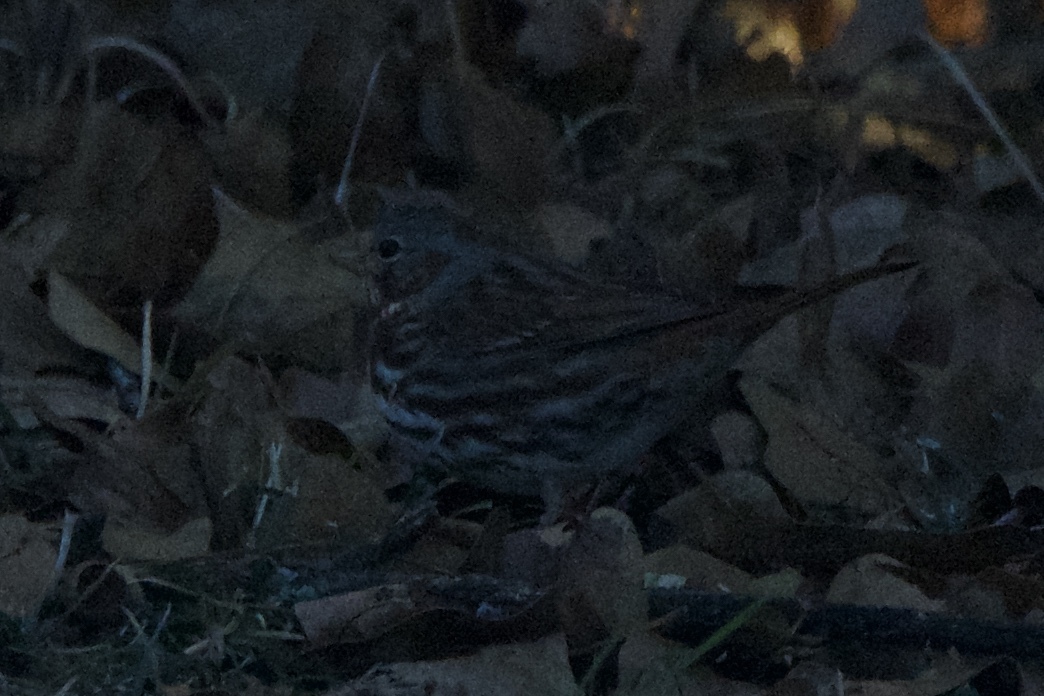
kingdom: Animalia
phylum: Chordata
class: Aves
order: Passeriformes
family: Passerellidae
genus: Passerella
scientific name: Passerella iliaca
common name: Fox sparrow
